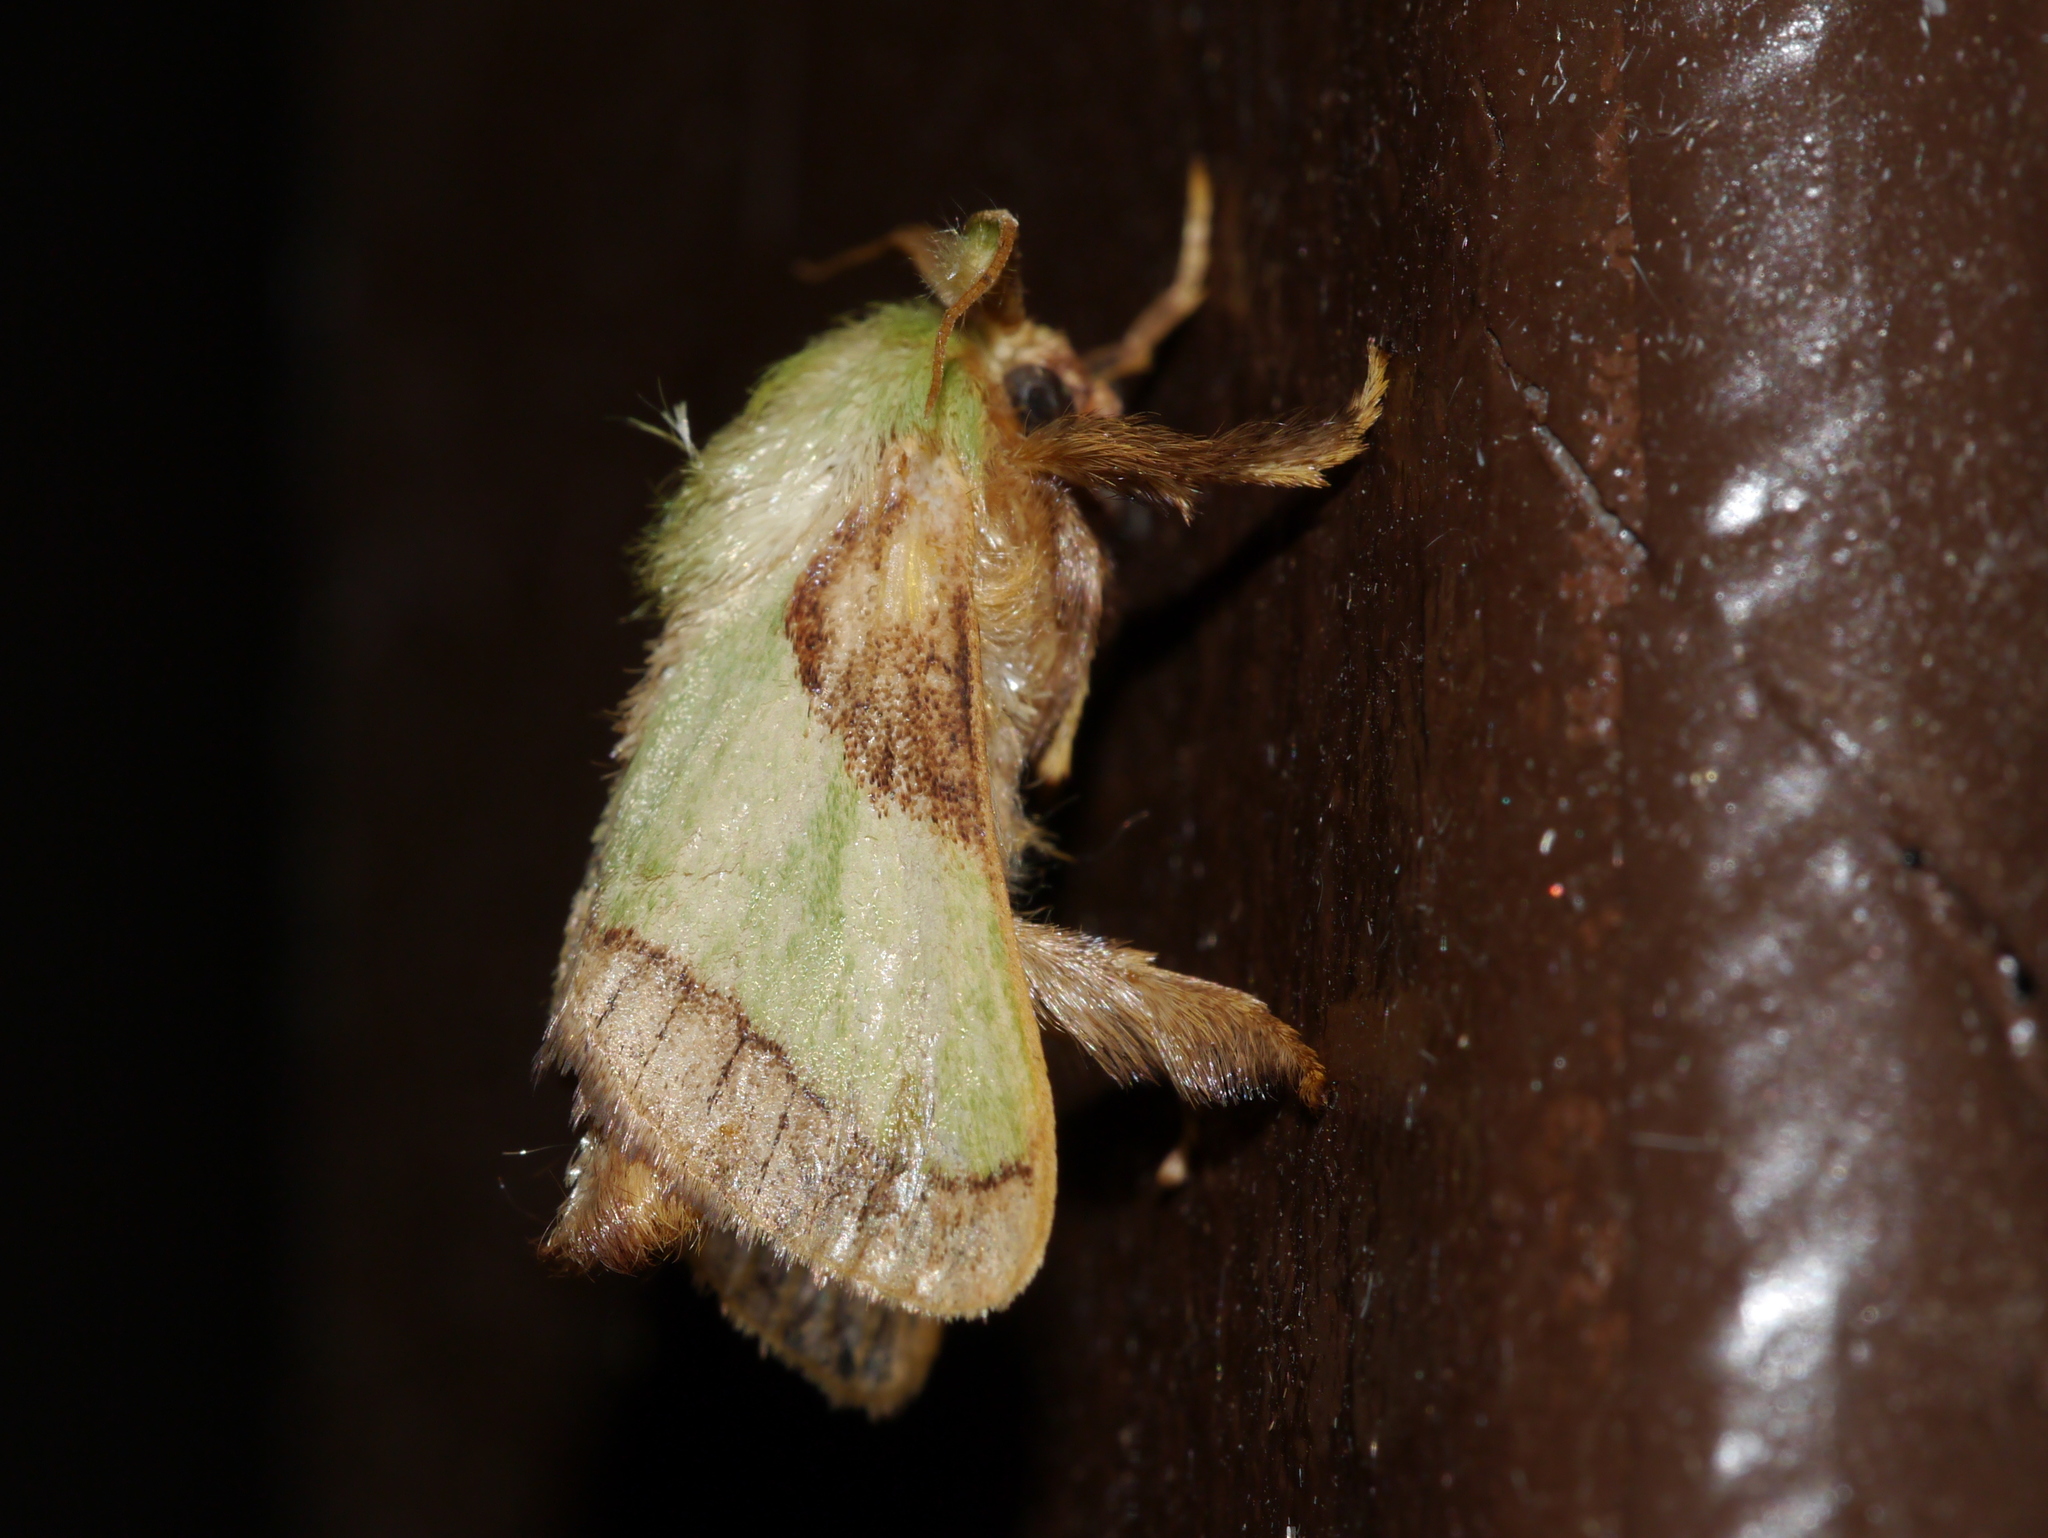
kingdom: Animalia
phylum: Arthropoda
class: Insecta
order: Lepidoptera
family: Limacodidae
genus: Parasa
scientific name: Parasa chloris
